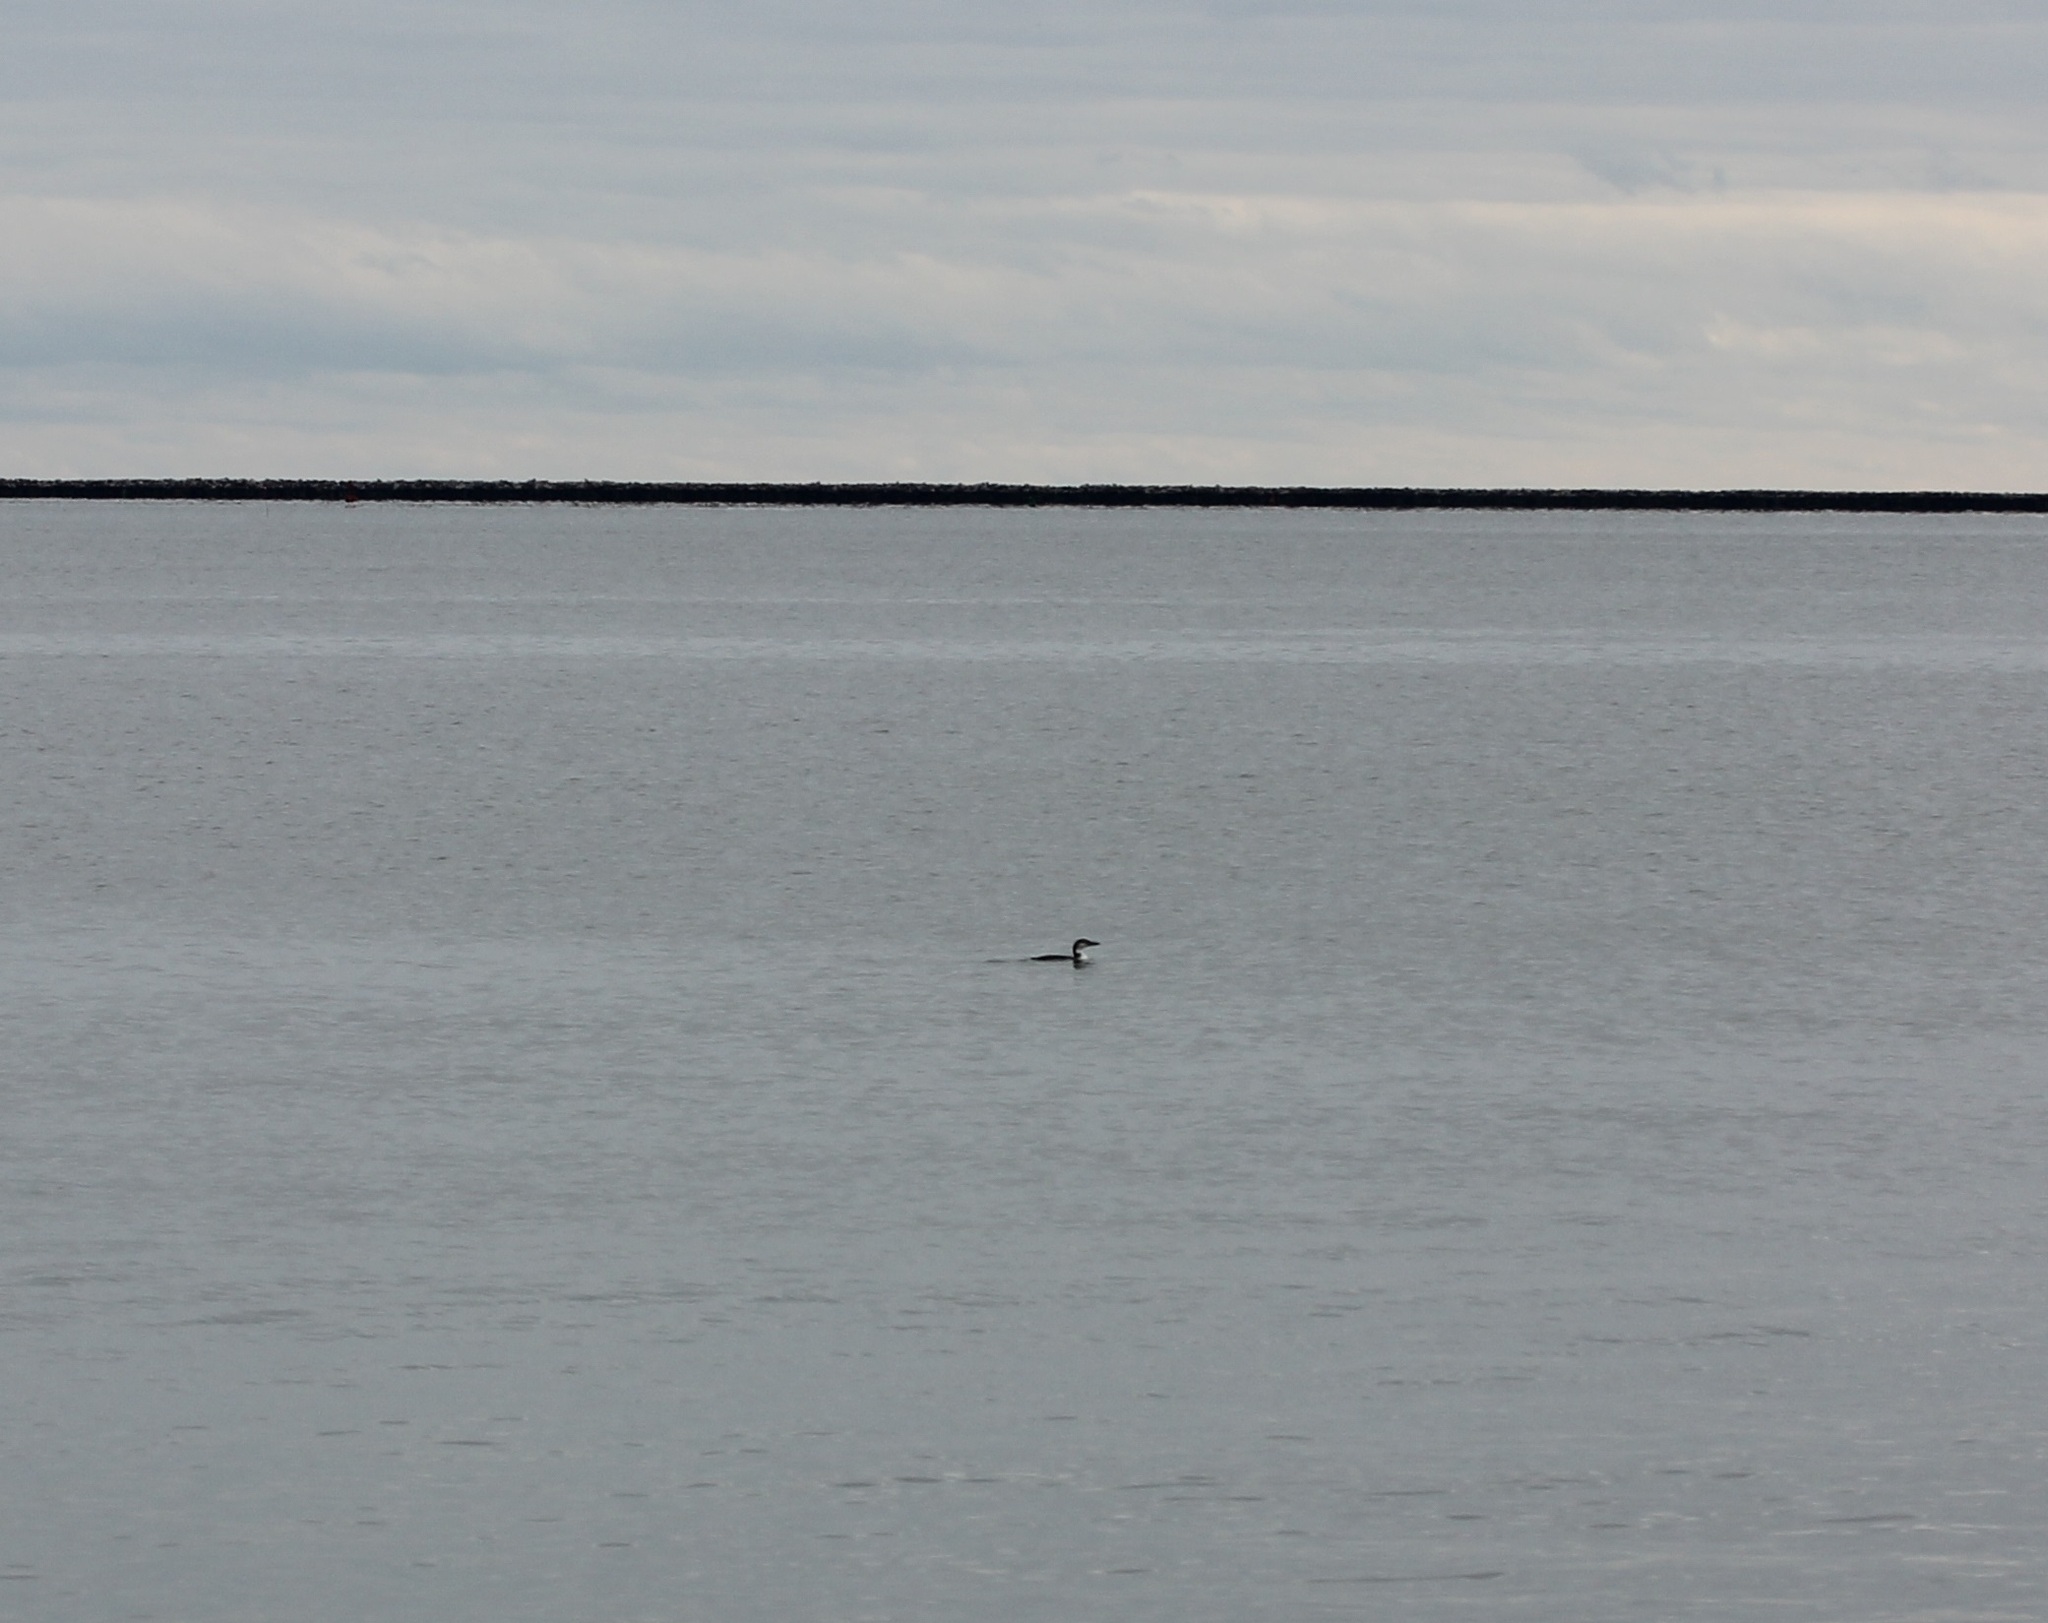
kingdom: Animalia
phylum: Chordata
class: Aves
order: Gaviiformes
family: Gaviidae
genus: Gavia
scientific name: Gavia immer
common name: Common loon
